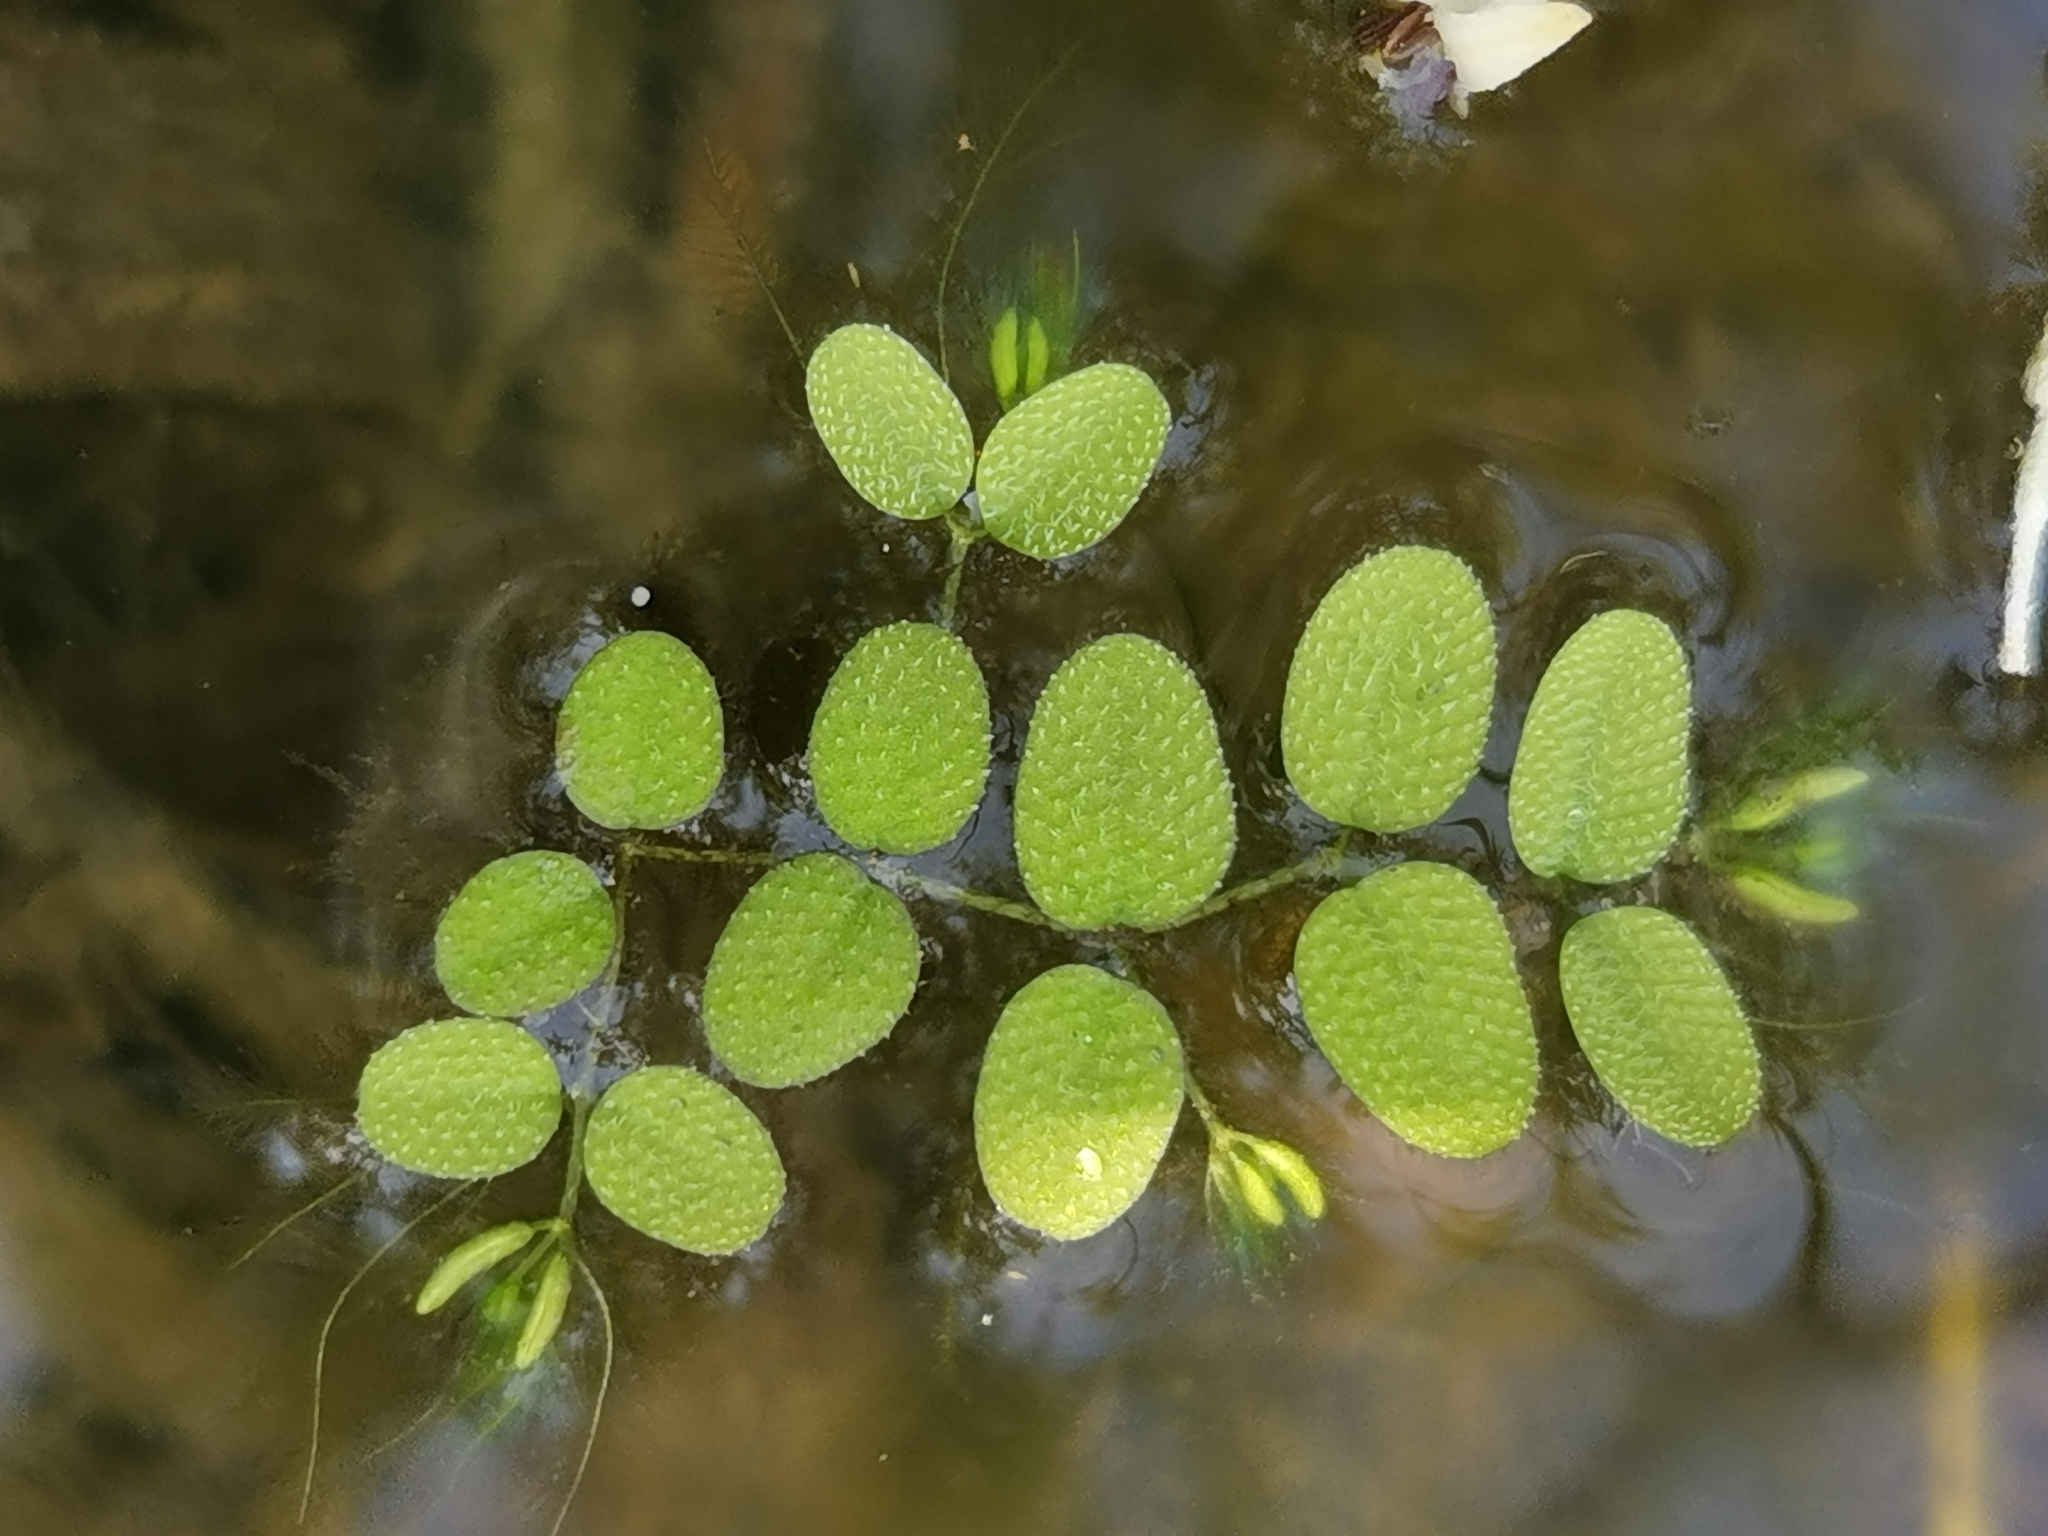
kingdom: Plantae
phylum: Tracheophyta
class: Polypodiopsida
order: Salviniales
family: Salviniaceae
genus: Salvinia
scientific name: Salvinia natans
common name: Floating fern
